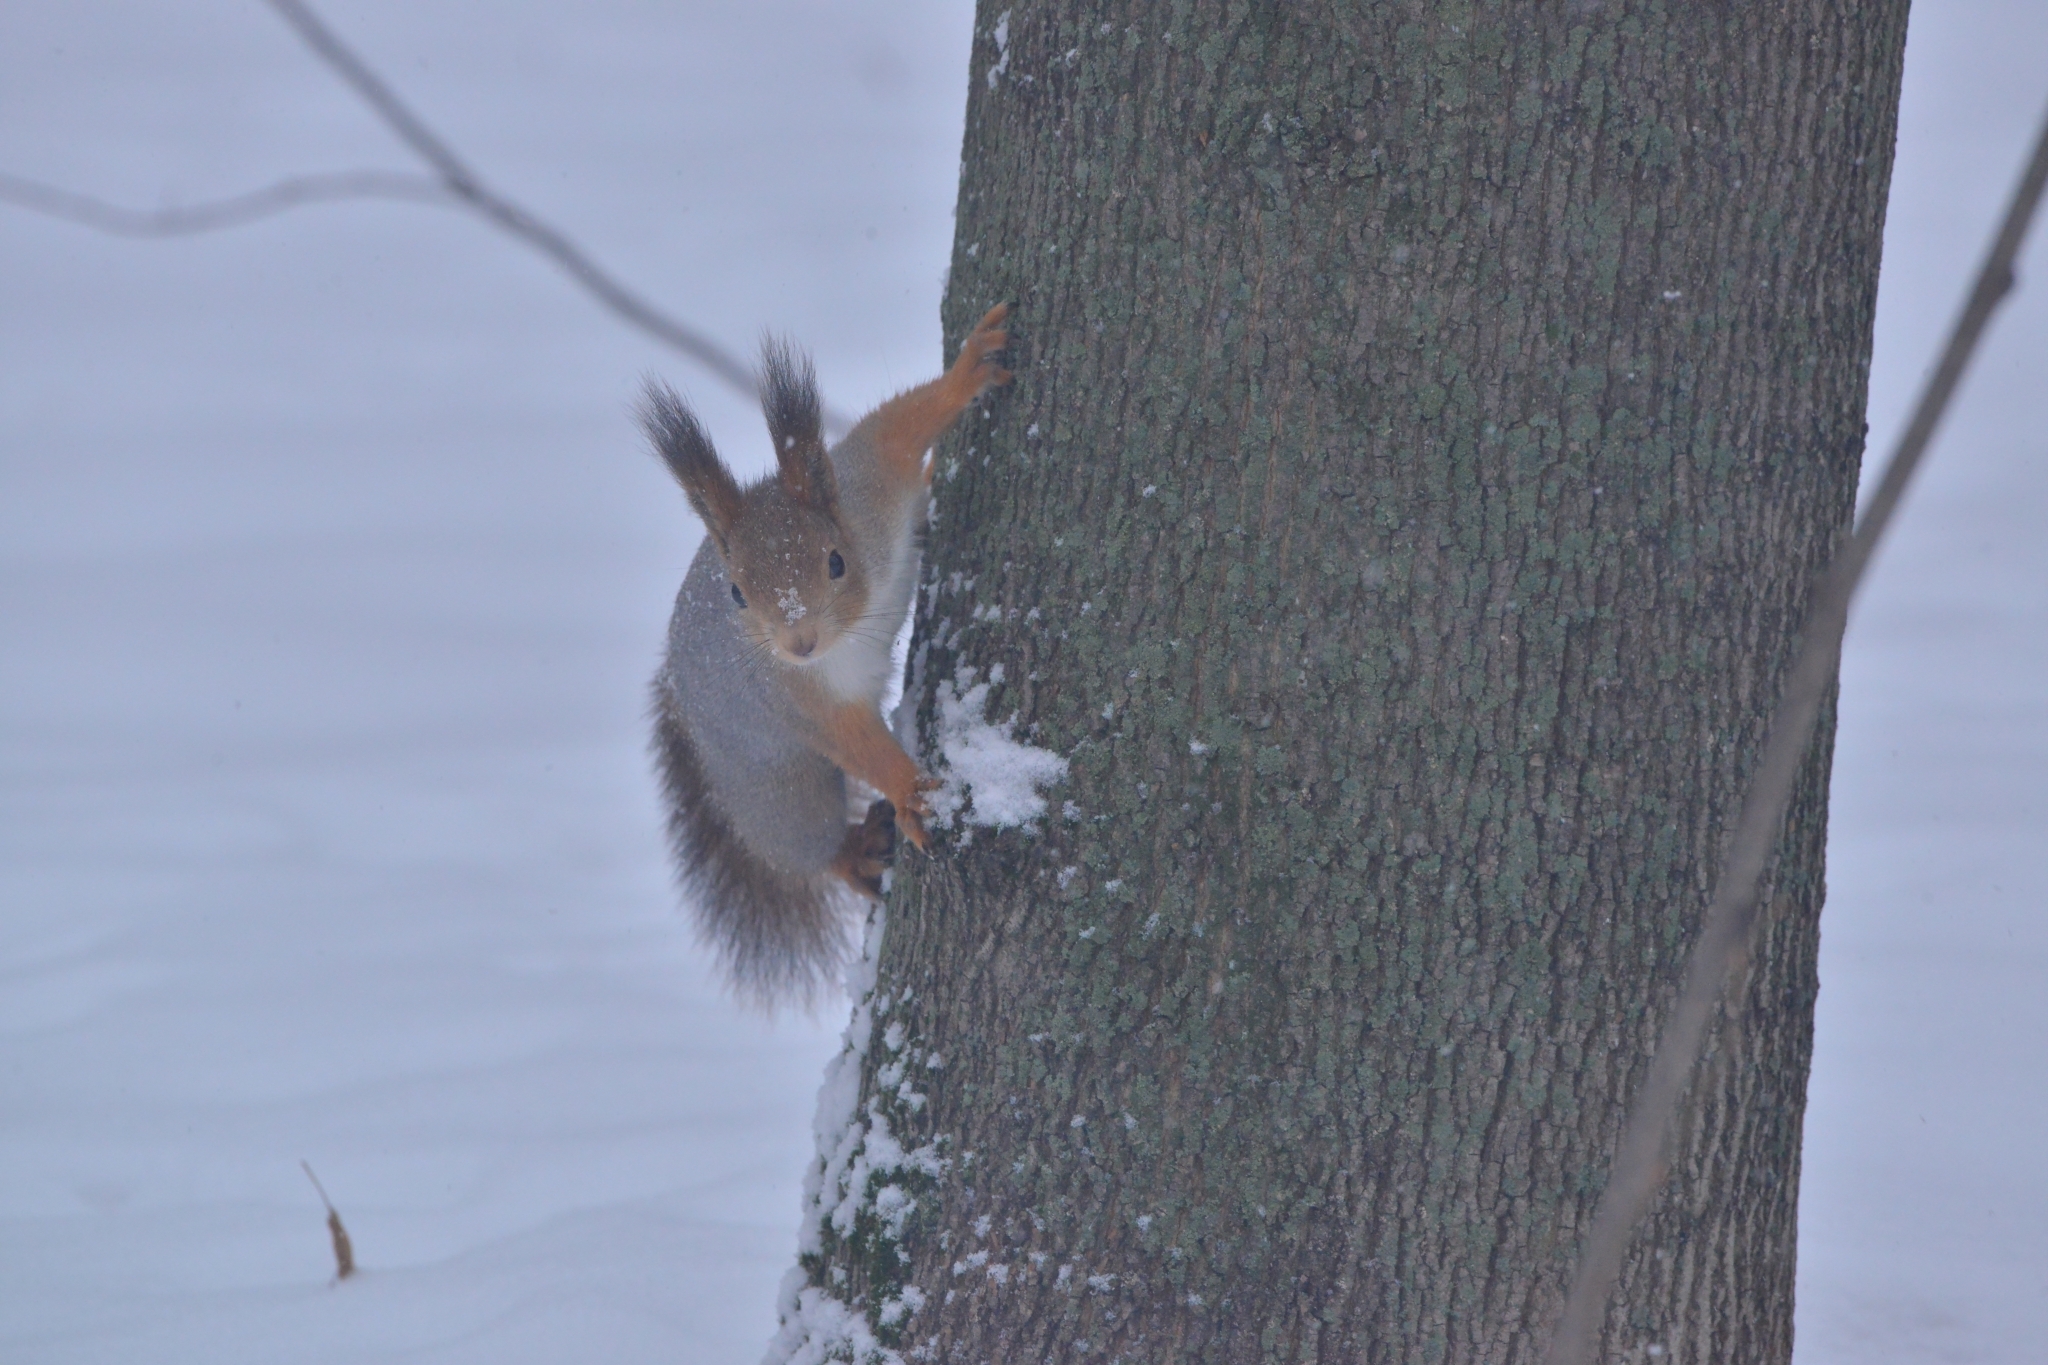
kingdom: Animalia
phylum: Chordata
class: Mammalia
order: Rodentia
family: Sciuridae
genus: Sciurus
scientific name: Sciurus vulgaris
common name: Eurasian red squirrel
